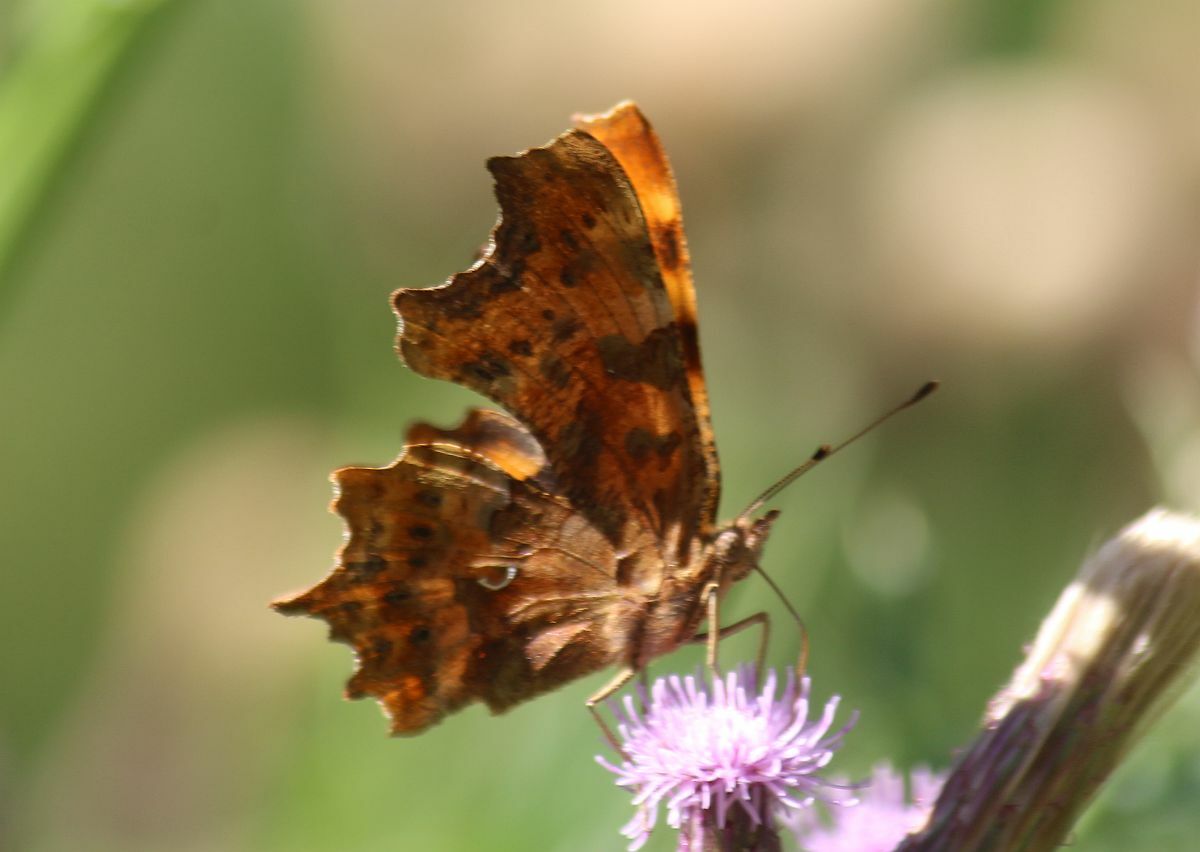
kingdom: Animalia
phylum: Arthropoda
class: Insecta
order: Lepidoptera
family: Nymphalidae
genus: Polygonia
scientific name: Polygonia c-album
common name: Comma
